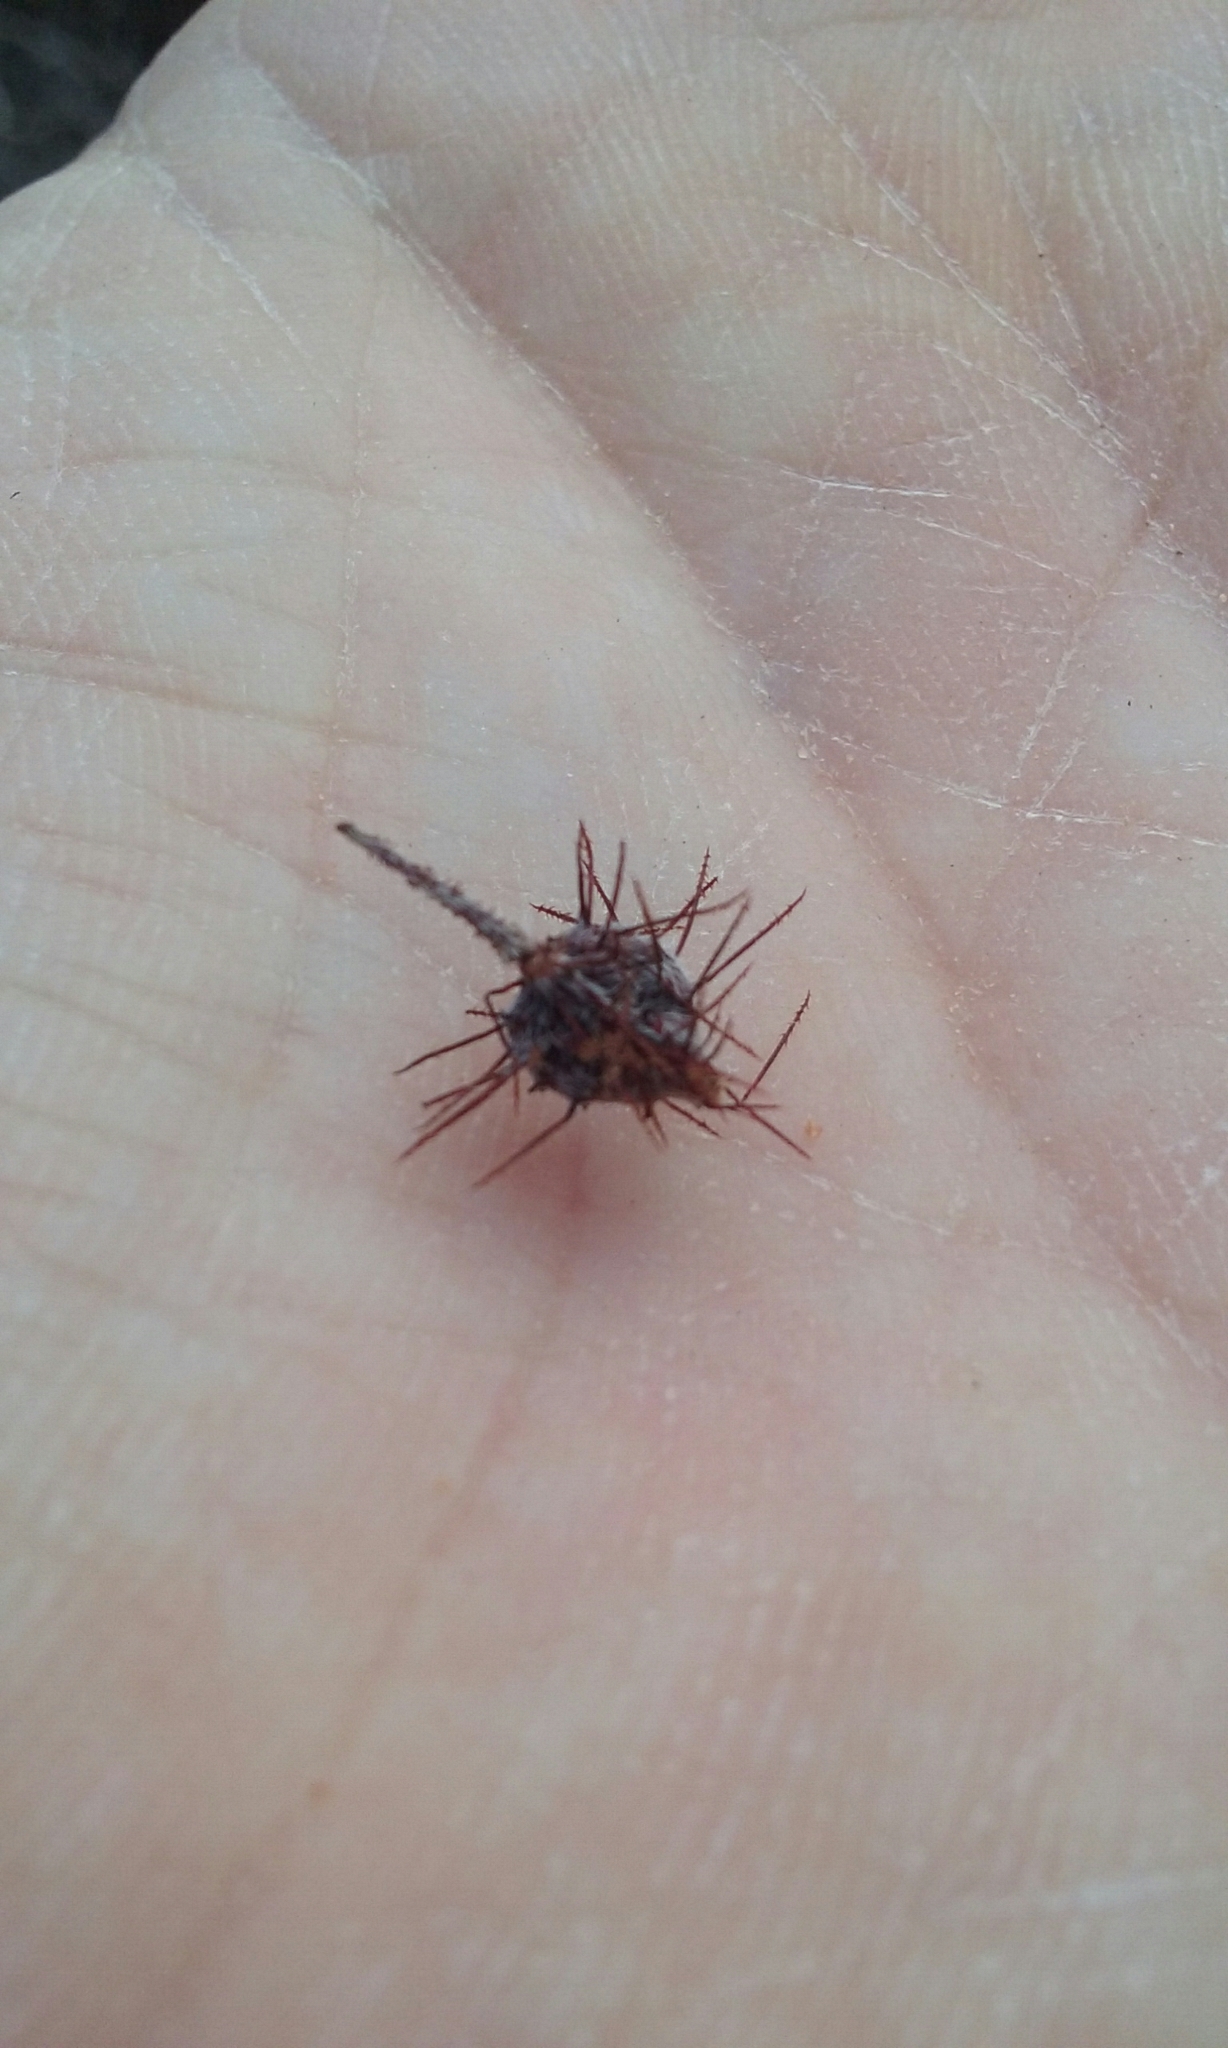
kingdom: Plantae
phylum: Tracheophyta
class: Magnoliopsida
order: Zygophyllales
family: Krameriaceae
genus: Krameria
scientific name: Krameria erecta
